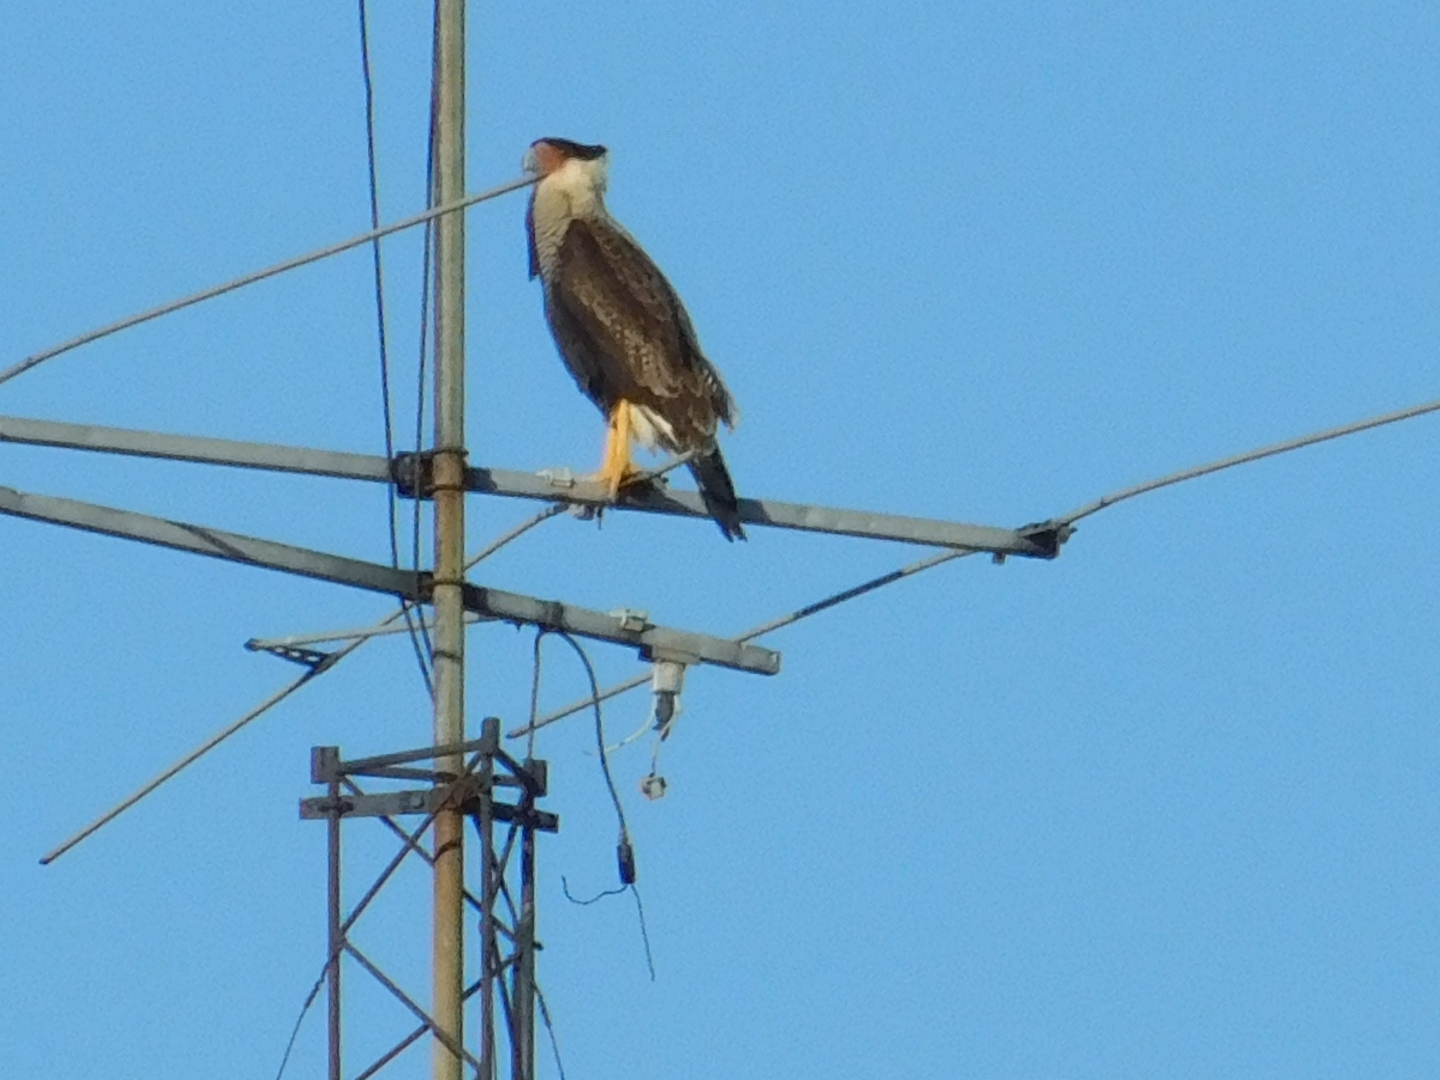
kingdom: Animalia
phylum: Chordata
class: Aves
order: Falconiformes
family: Falconidae
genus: Caracara
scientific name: Caracara plancus
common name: Southern caracara
